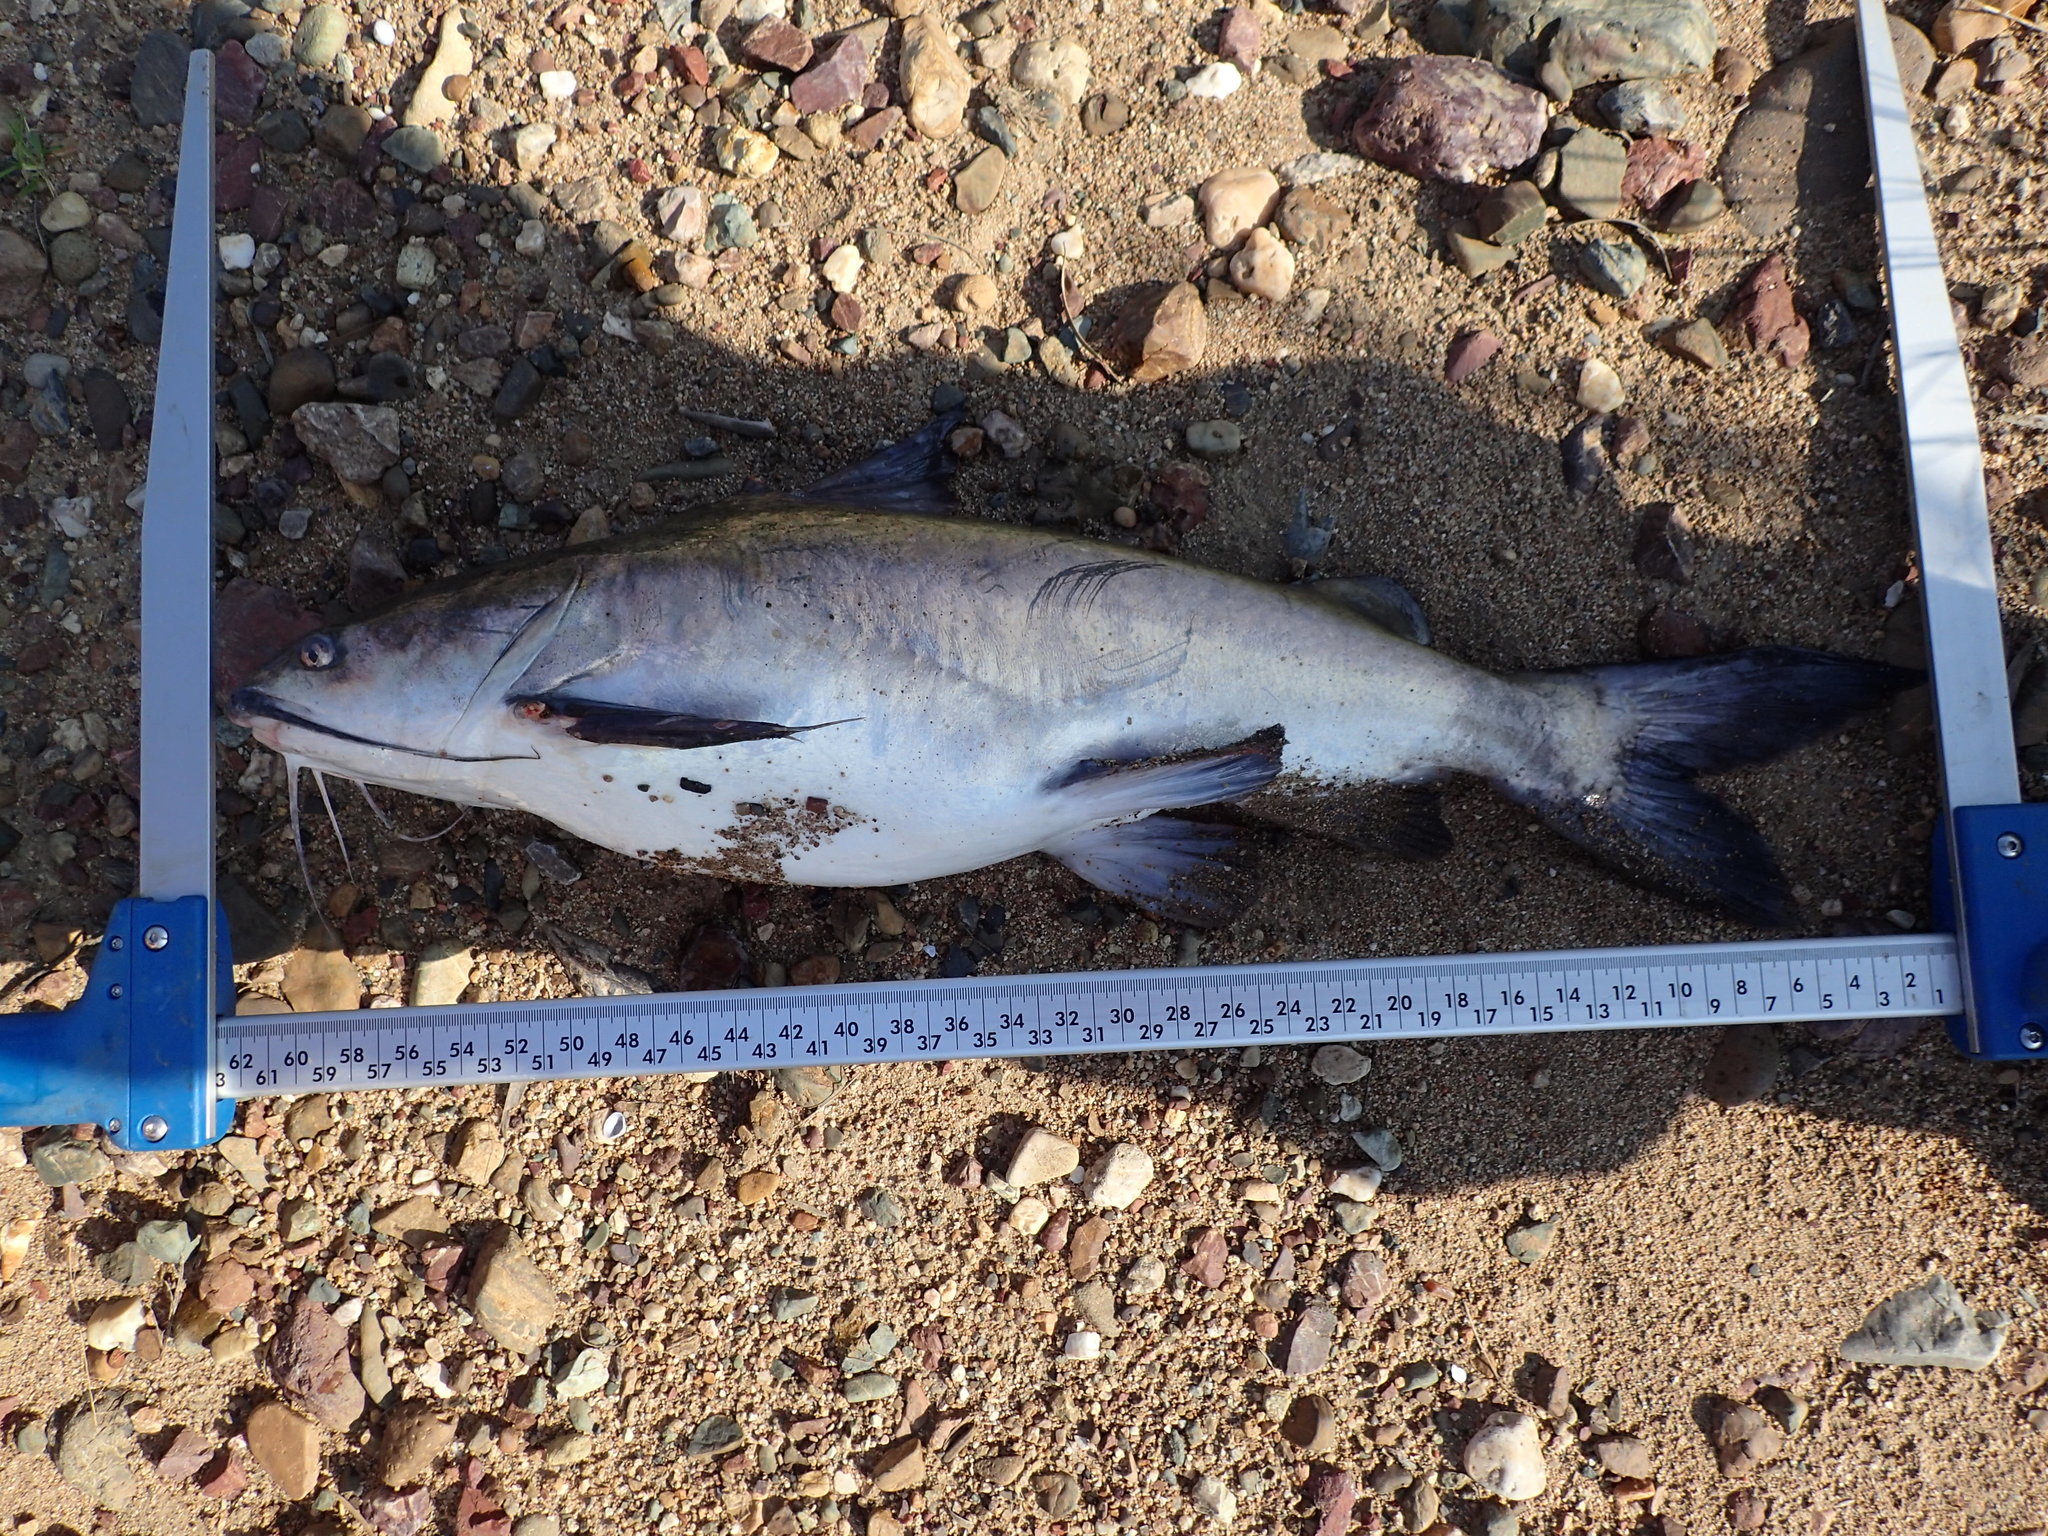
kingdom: Animalia
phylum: Chordata
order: Siluriformes
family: Ariidae
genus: Neoarius
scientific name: Neoarius graeffei
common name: Blue salmon catfish
